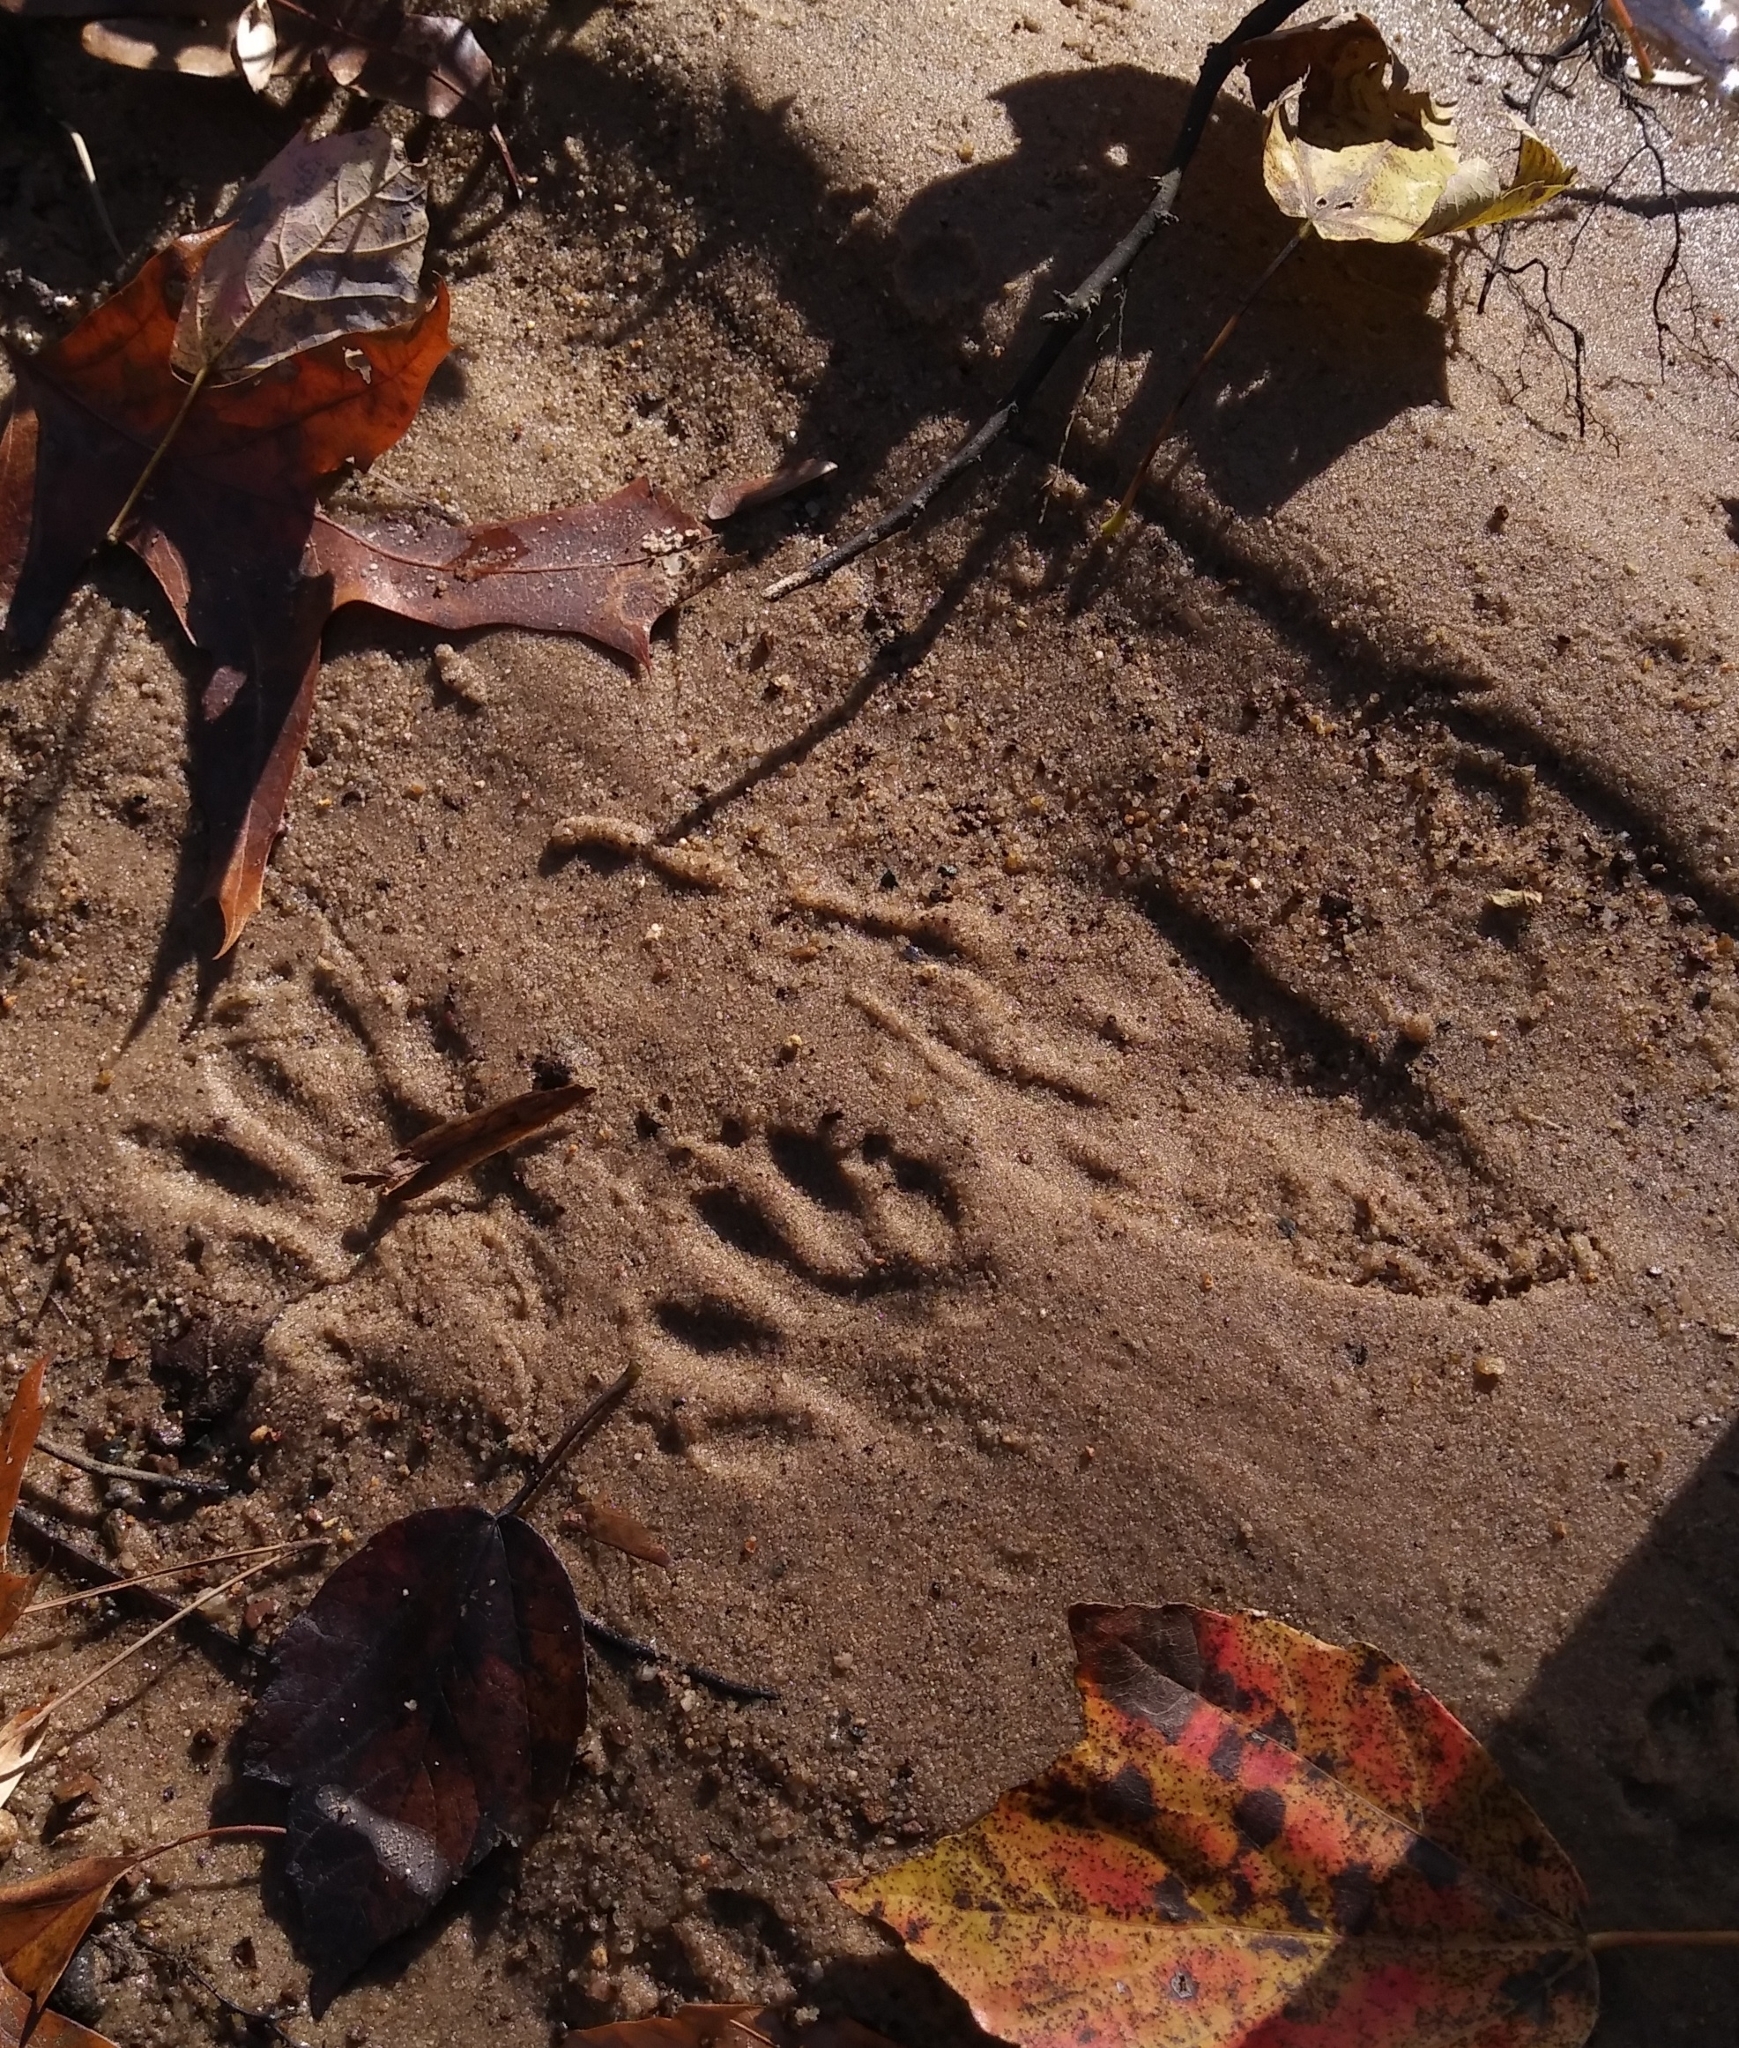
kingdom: Animalia
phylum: Chordata
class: Mammalia
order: Carnivora
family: Procyonidae
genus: Procyon
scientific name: Procyon lotor
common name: Raccoon
